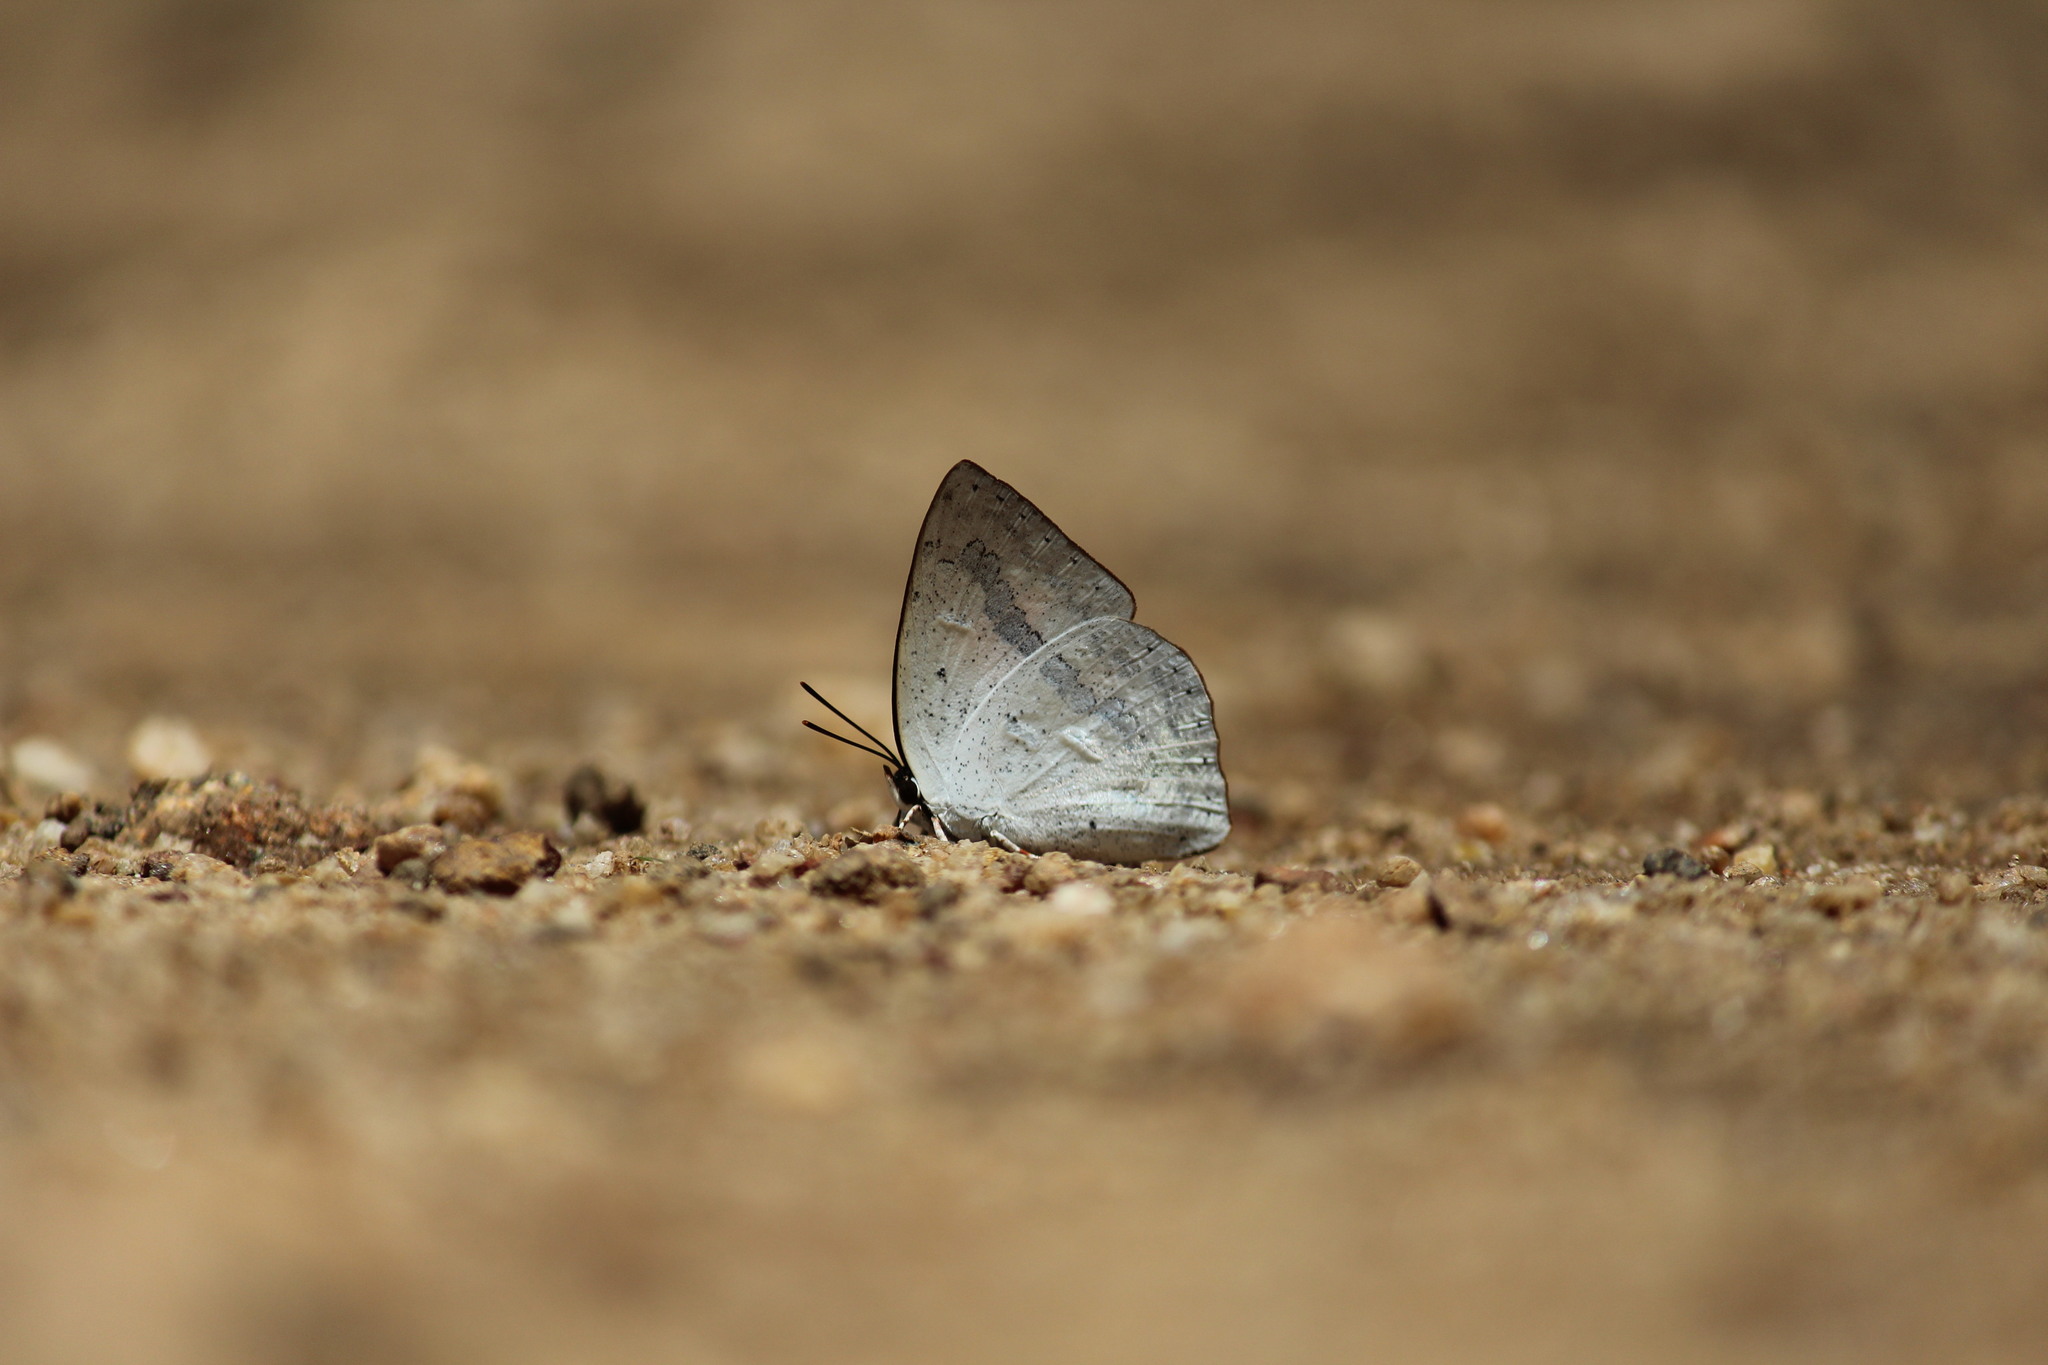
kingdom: Animalia
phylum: Arthropoda
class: Insecta
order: Lepidoptera
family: Lycaenidae
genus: Curetis
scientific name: Curetis siva
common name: Shiva sunbeam
